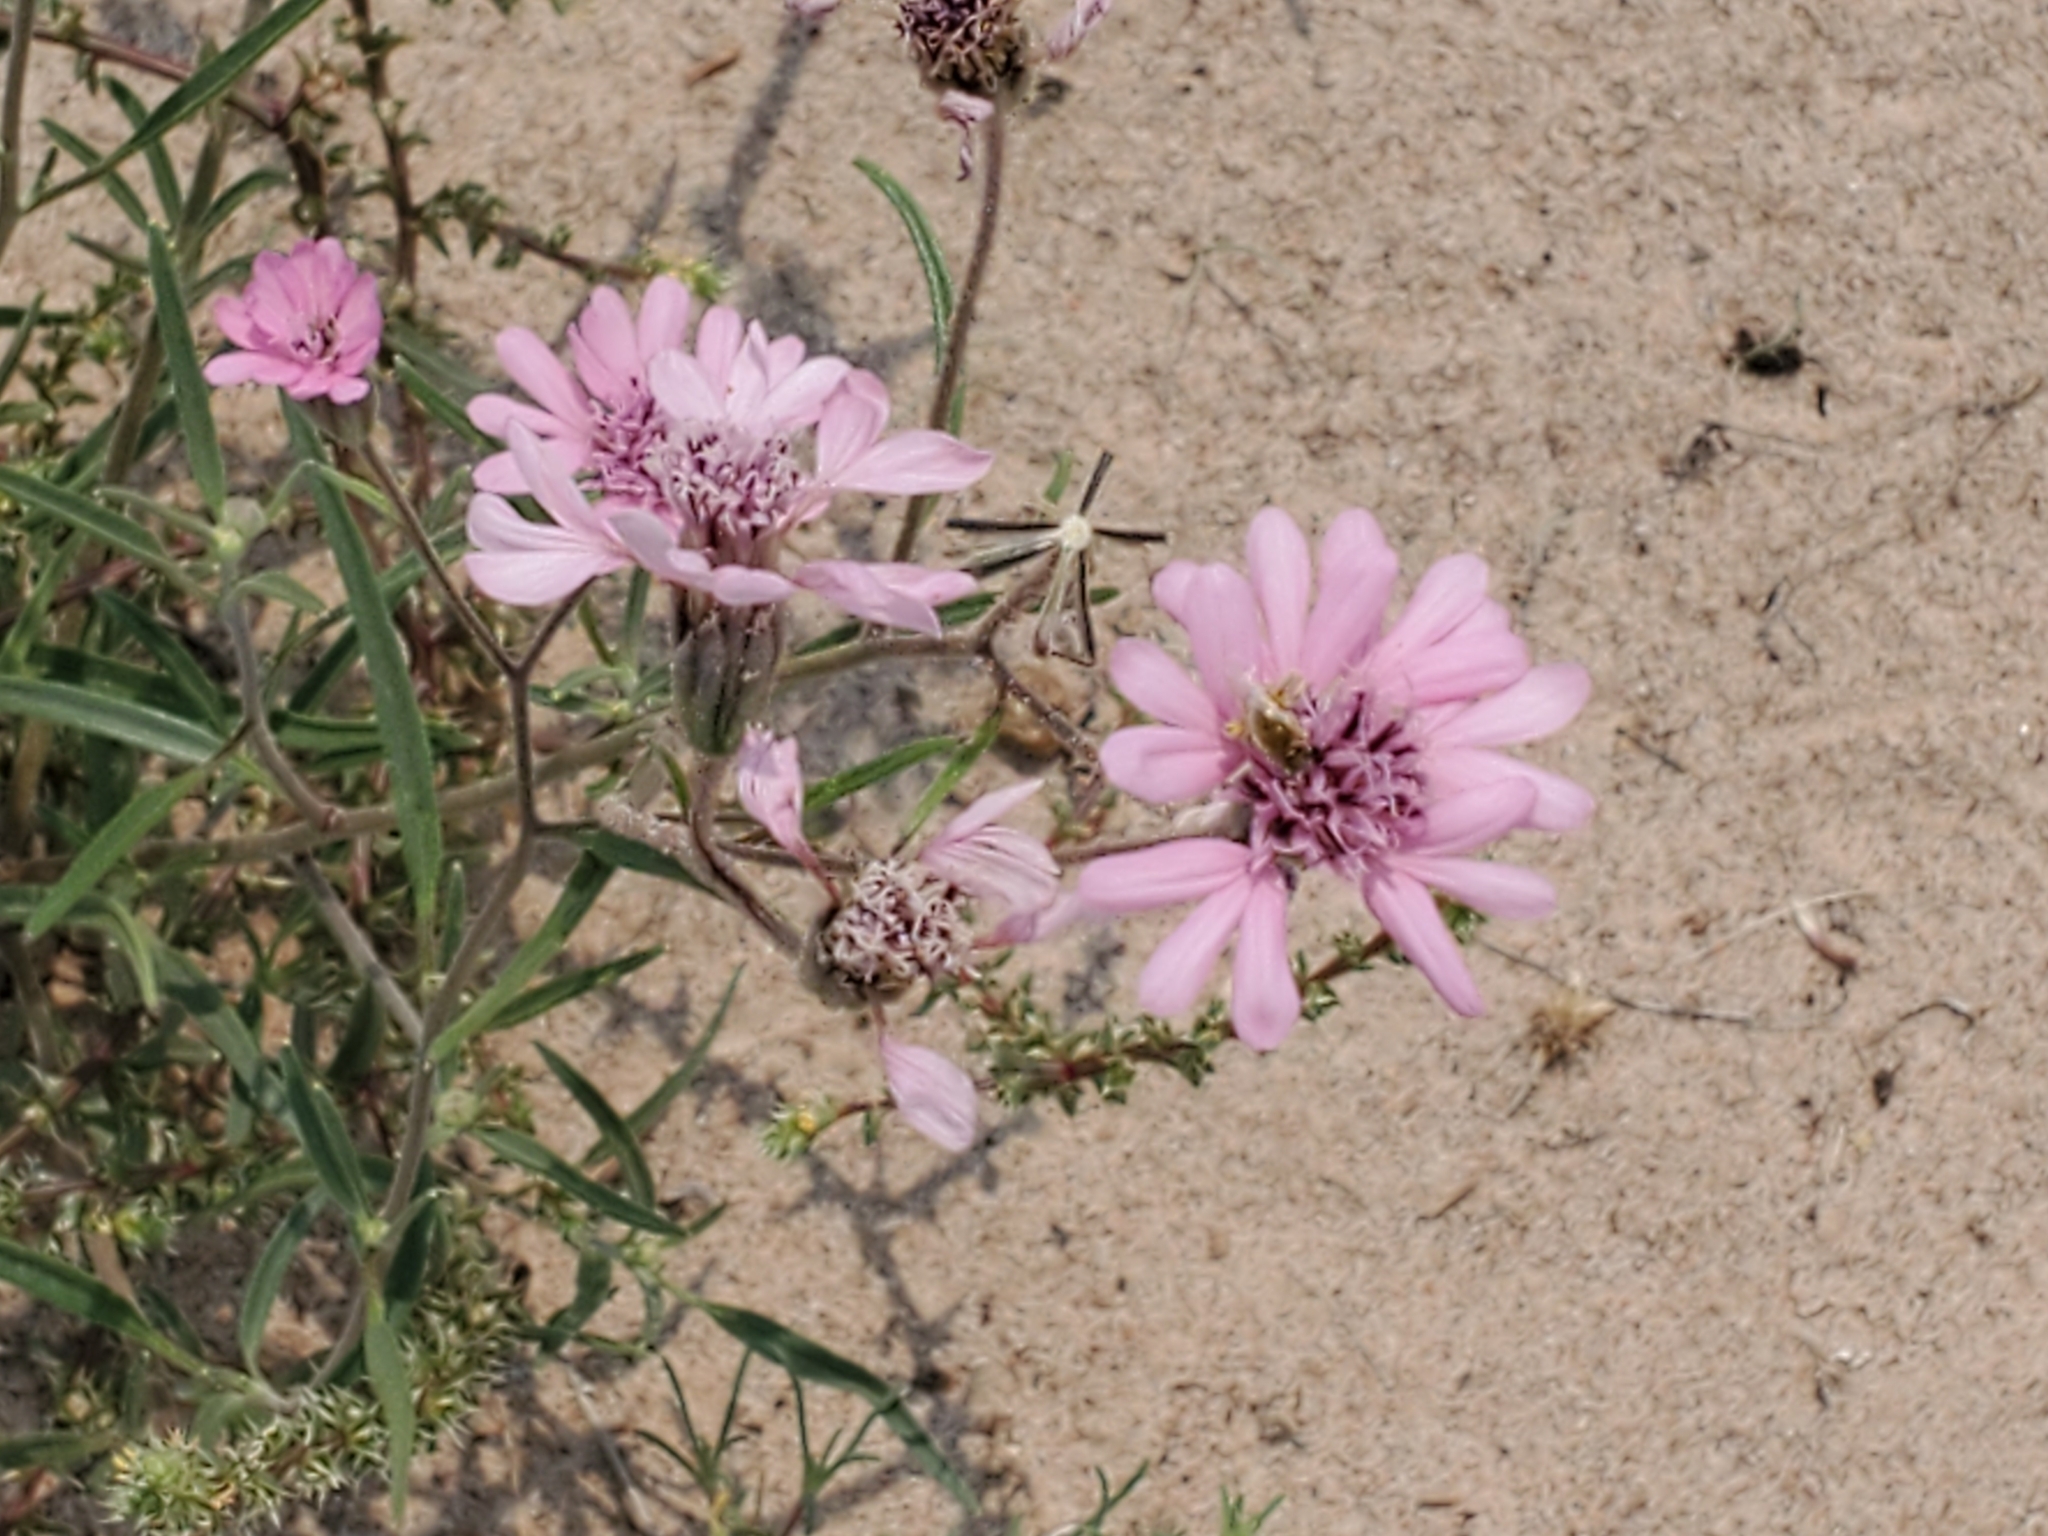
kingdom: Plantae
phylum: Tracheophyta
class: Magnoliopsida
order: Asterales
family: Asteraceae
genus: Palafoxia
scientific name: Palafoxia sphacelata
